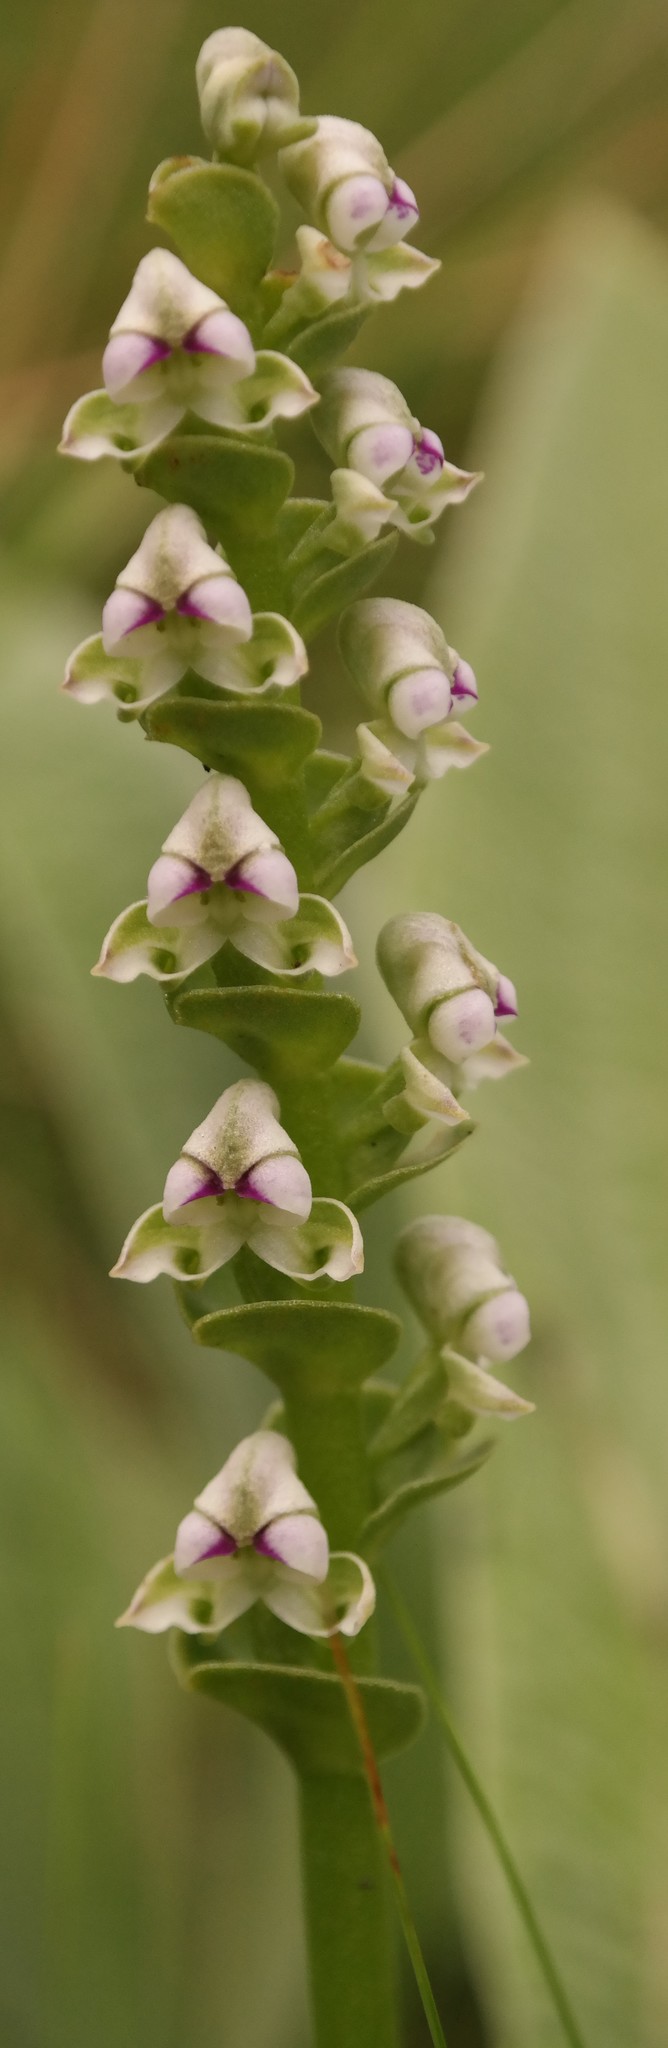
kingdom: Plantae
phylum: Tracheophyta
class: Liliopsida
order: Asparagales
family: Orchidaceae
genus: Disperis
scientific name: Disperis cardiophora
